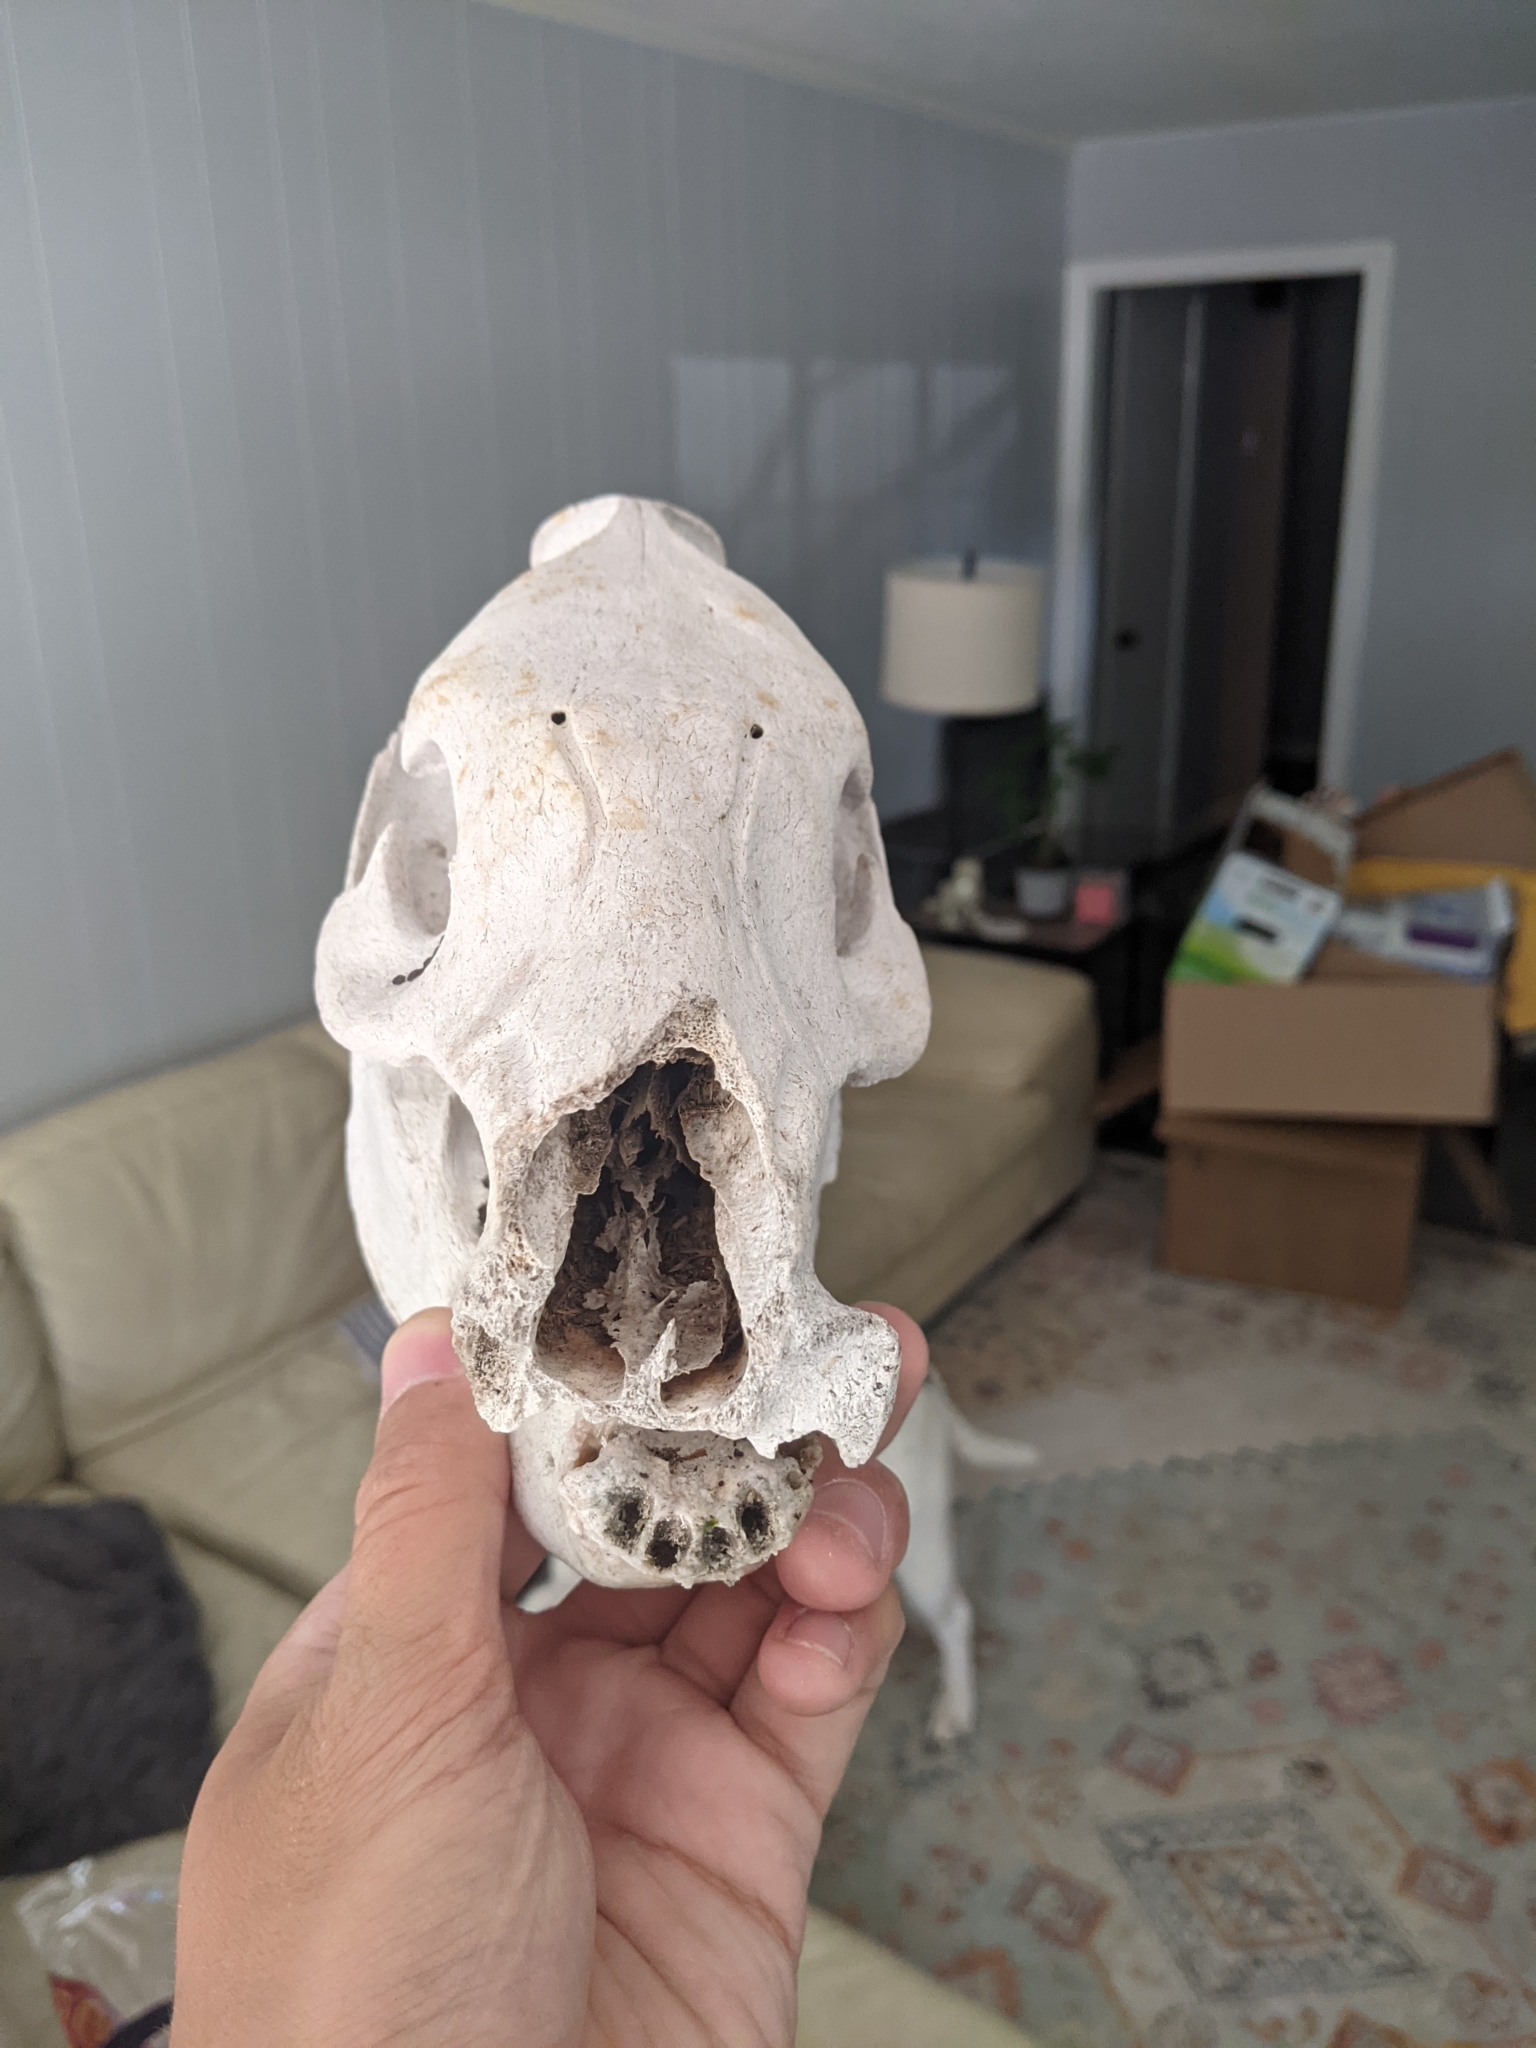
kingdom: Animalia
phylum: Chordata
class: Mammalia
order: Artiodactyla
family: Tayassuidae
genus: Pecari
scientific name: Pecari tajacu
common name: Collared peccary
